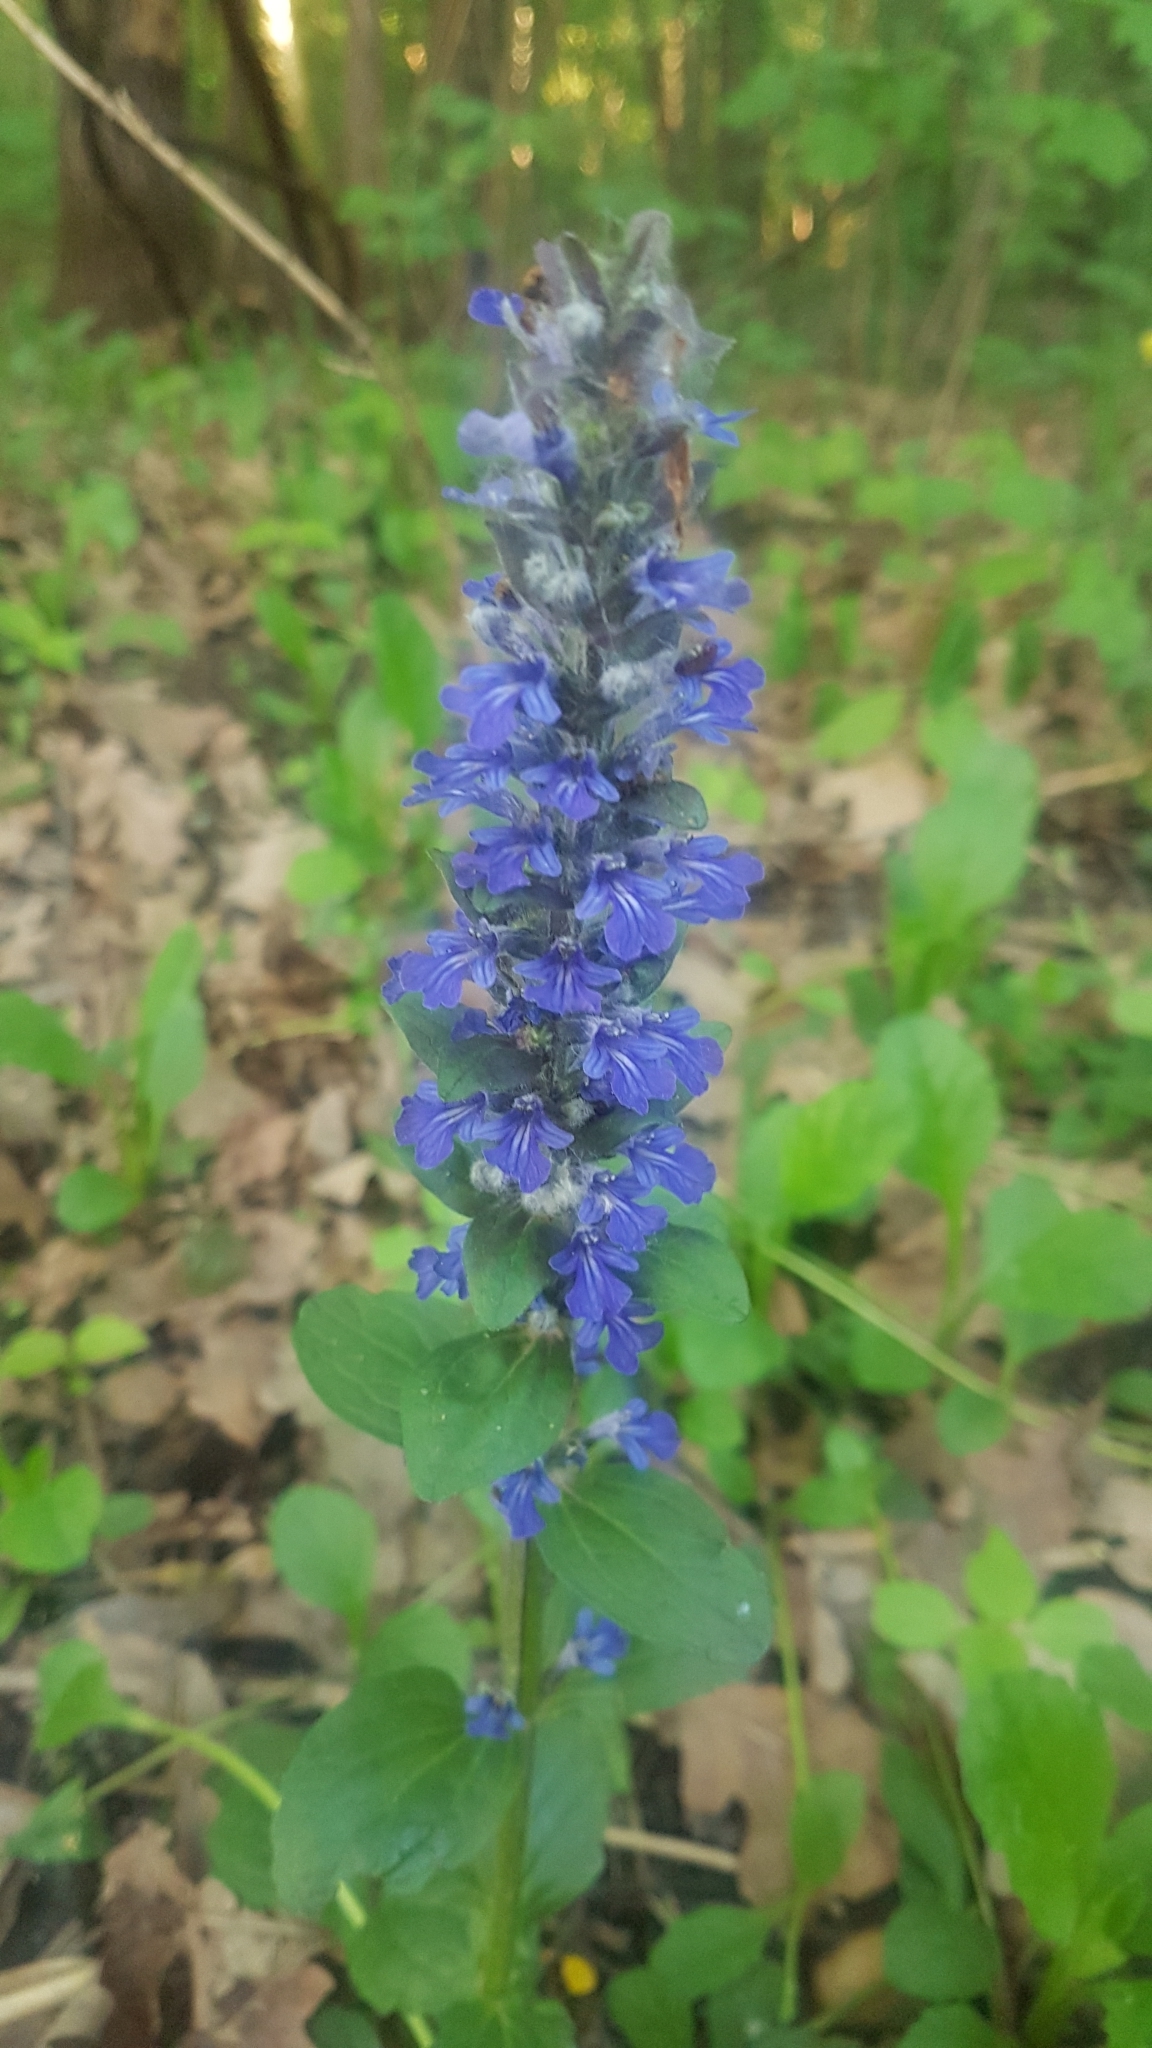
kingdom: Plantae
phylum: Tracheophyta
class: Magnoliopsida
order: Lamiales
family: Lamiaceae
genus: Ajuga
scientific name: Ajuga reptans
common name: Bugle
